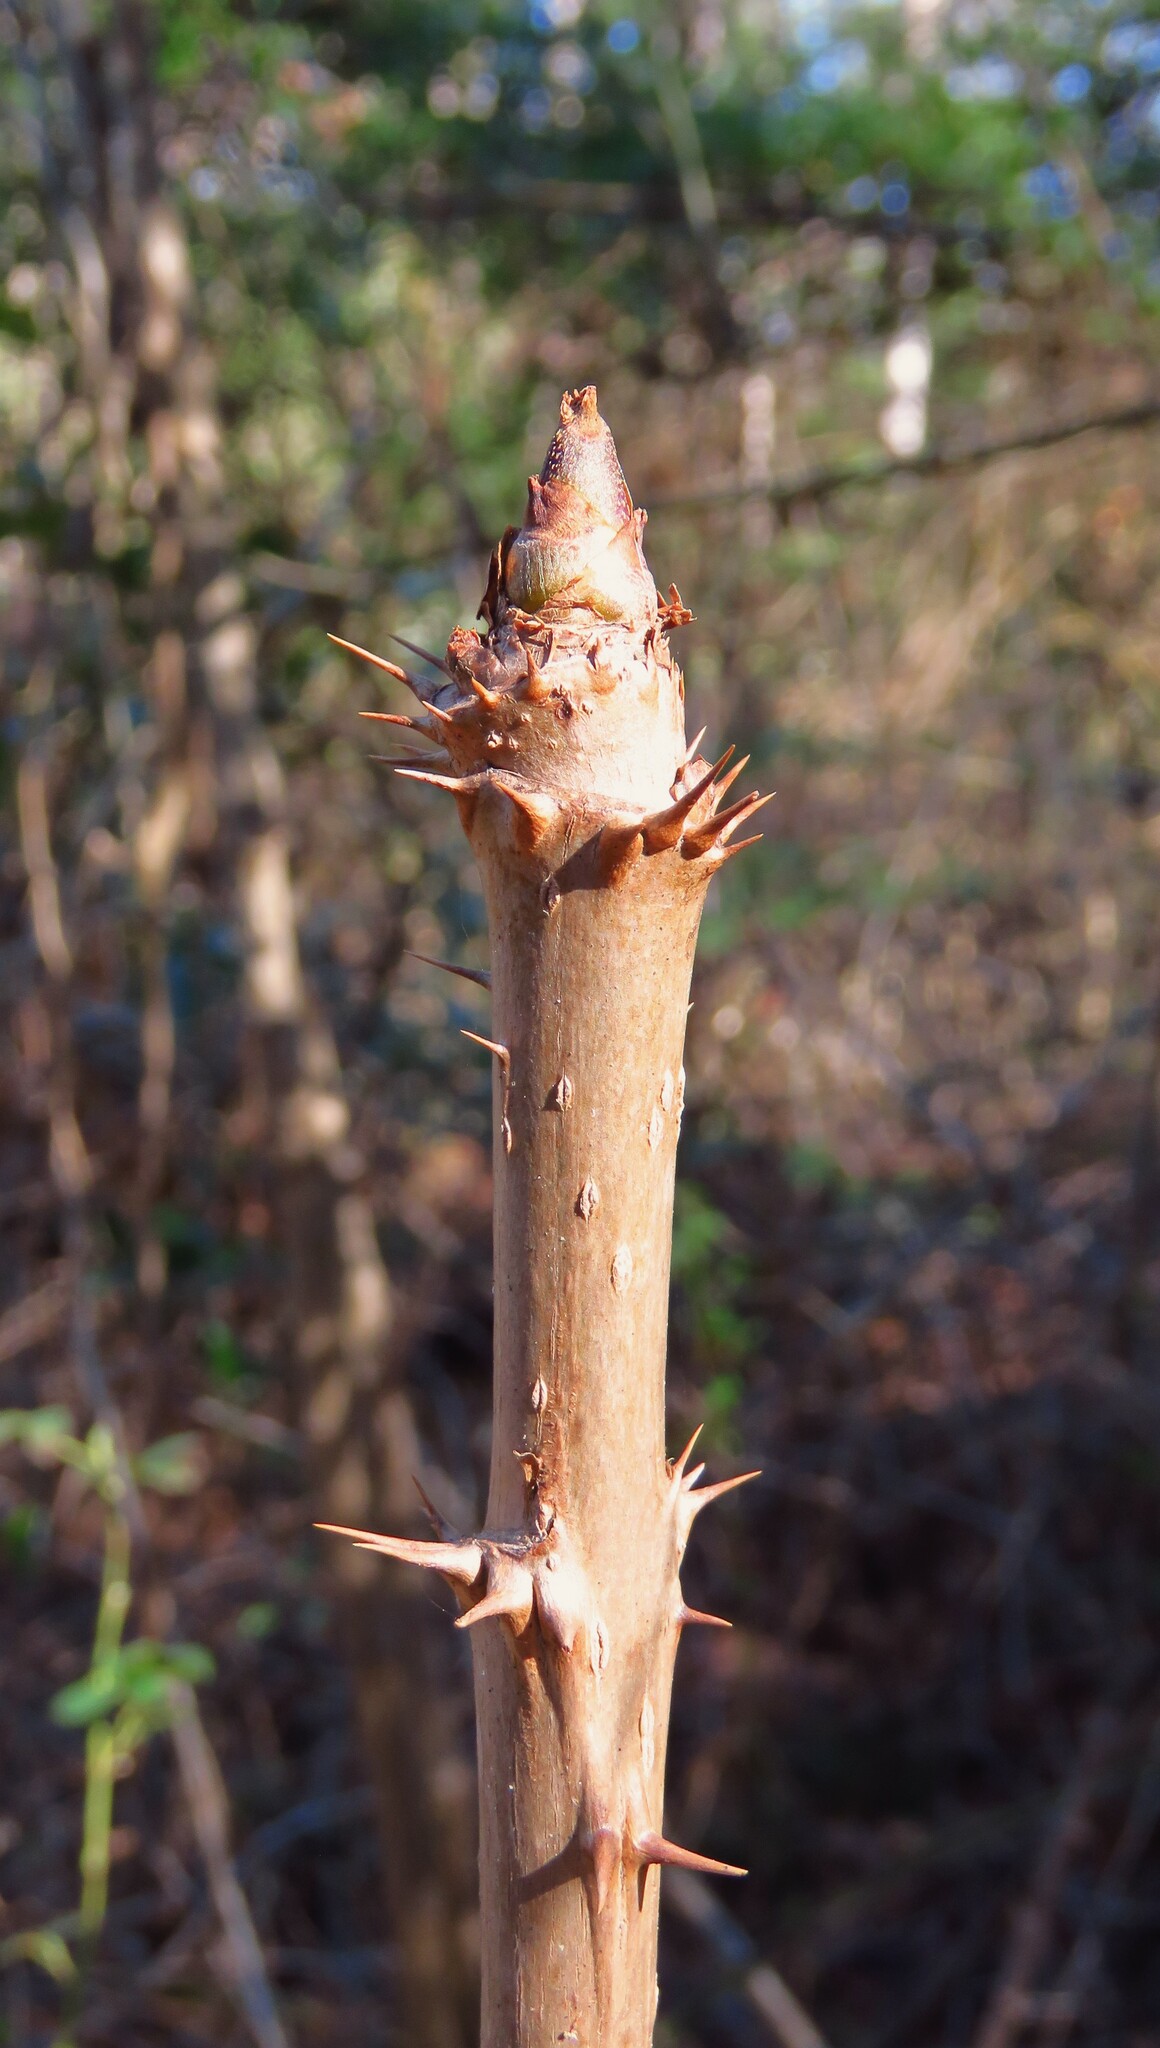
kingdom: Plantae
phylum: Tracheophyta
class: Magnoliopsida
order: Apiales
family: Araliaceae
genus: Aralia
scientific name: Aralia spinosa
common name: Hercules'-club
